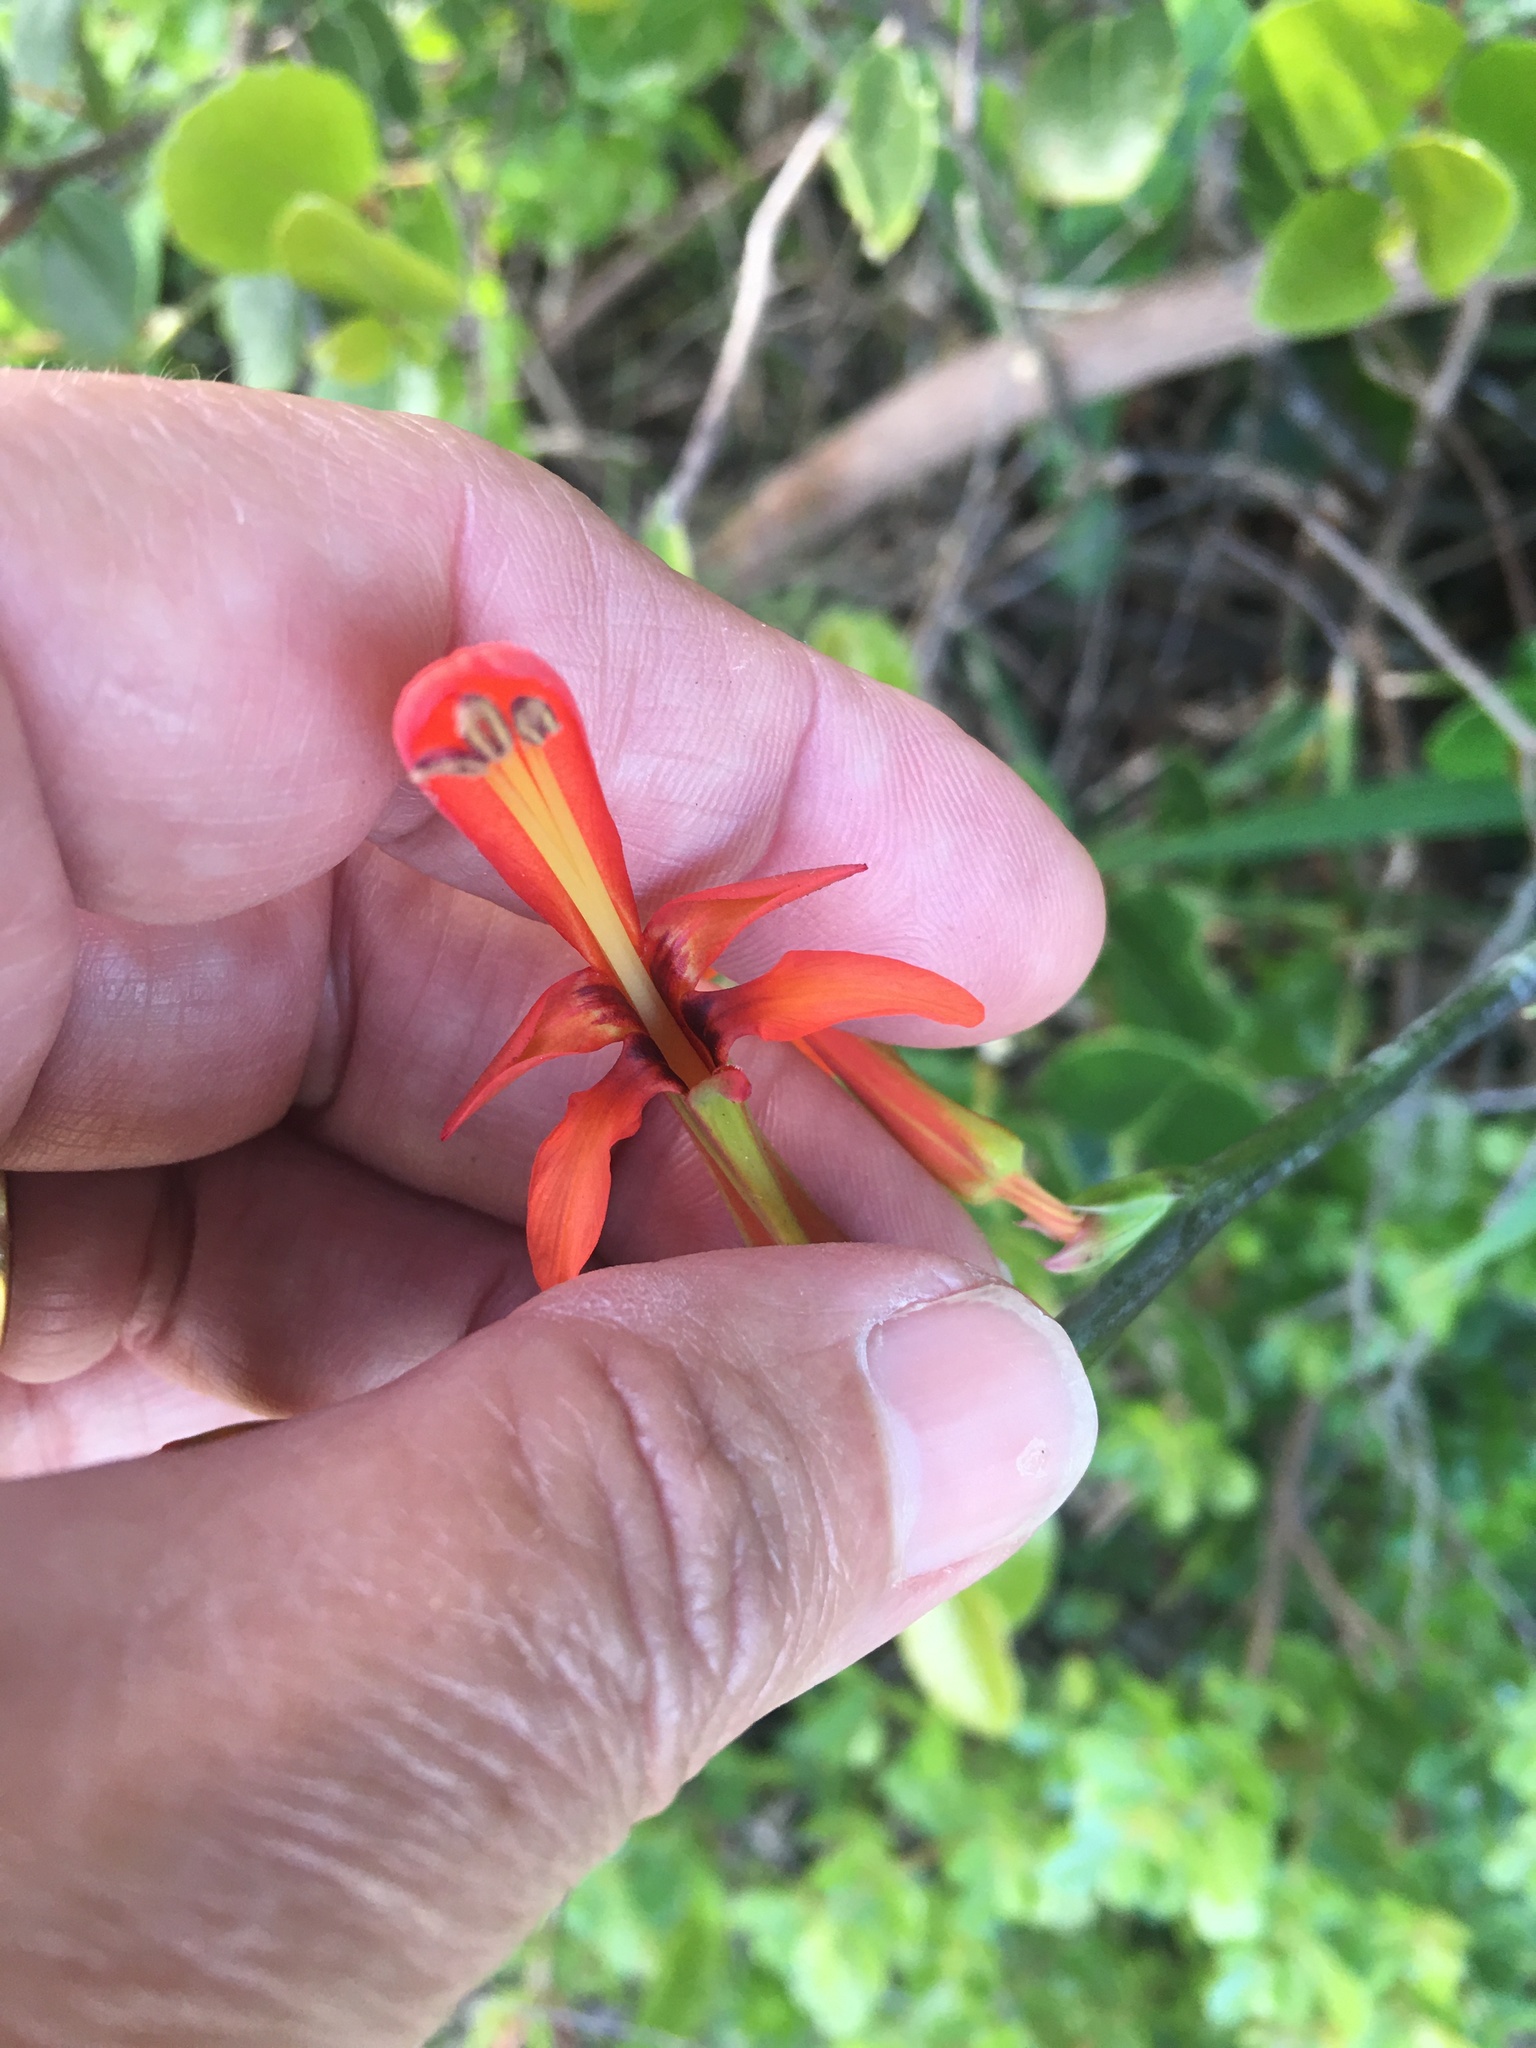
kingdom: Plantae
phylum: Tracheophyta
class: Liliopsida
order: Asparagales
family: Iridaceae
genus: Chasmanthe
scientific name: Chasmanthe aethiopica
